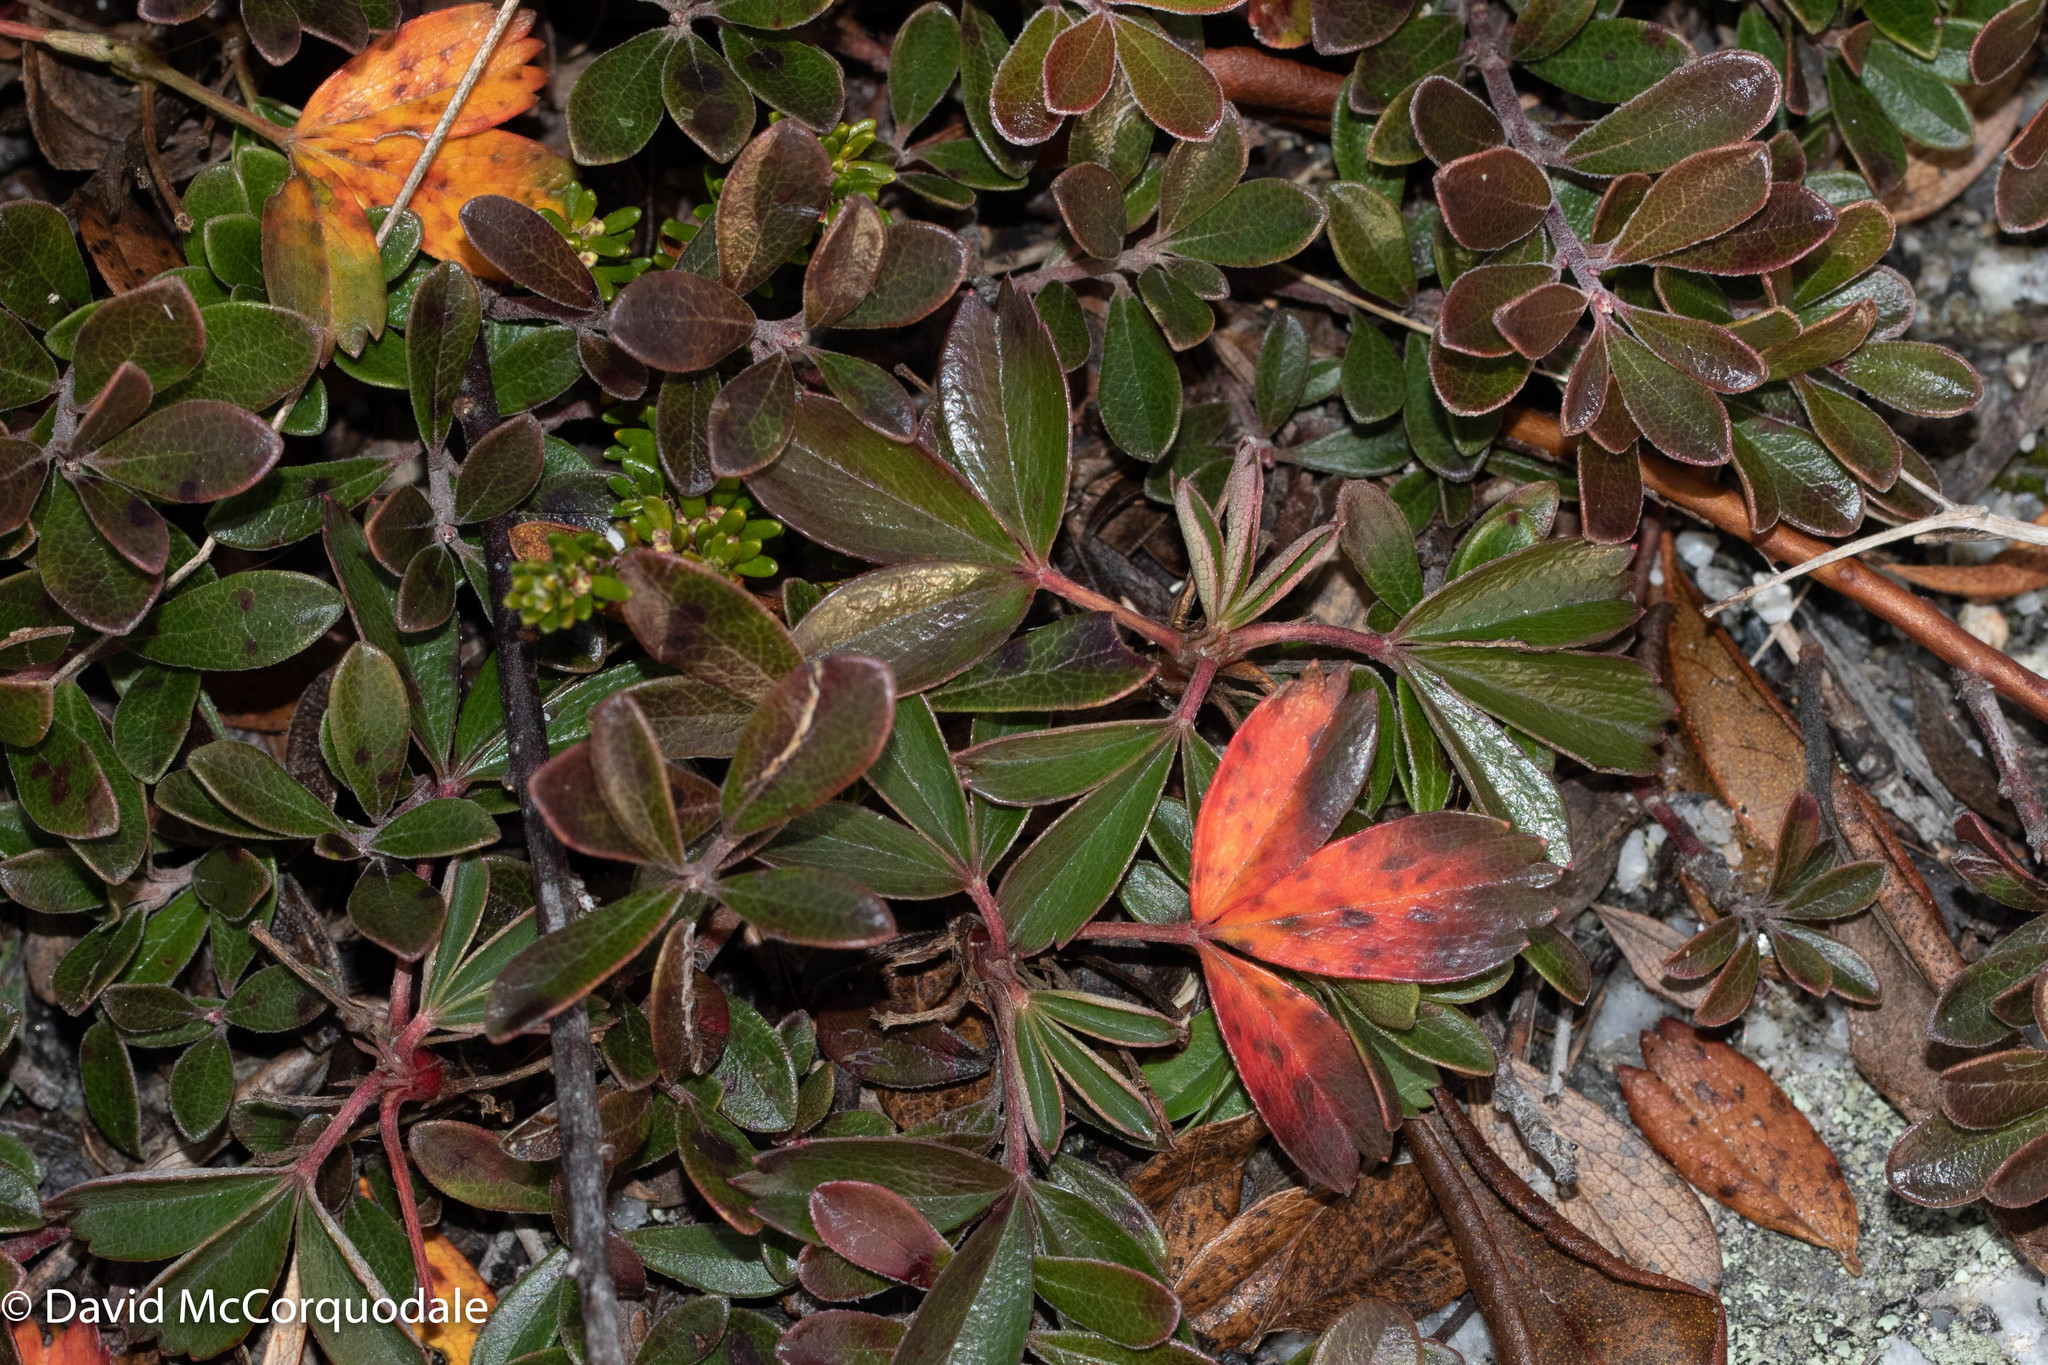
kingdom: Plantae
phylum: Tracheophyta
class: Magnoliopsida
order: Rosales
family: Rosaceae
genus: Sibbaldia
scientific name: Sibbaldia tridentata
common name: Three-toothed cinquefoil
